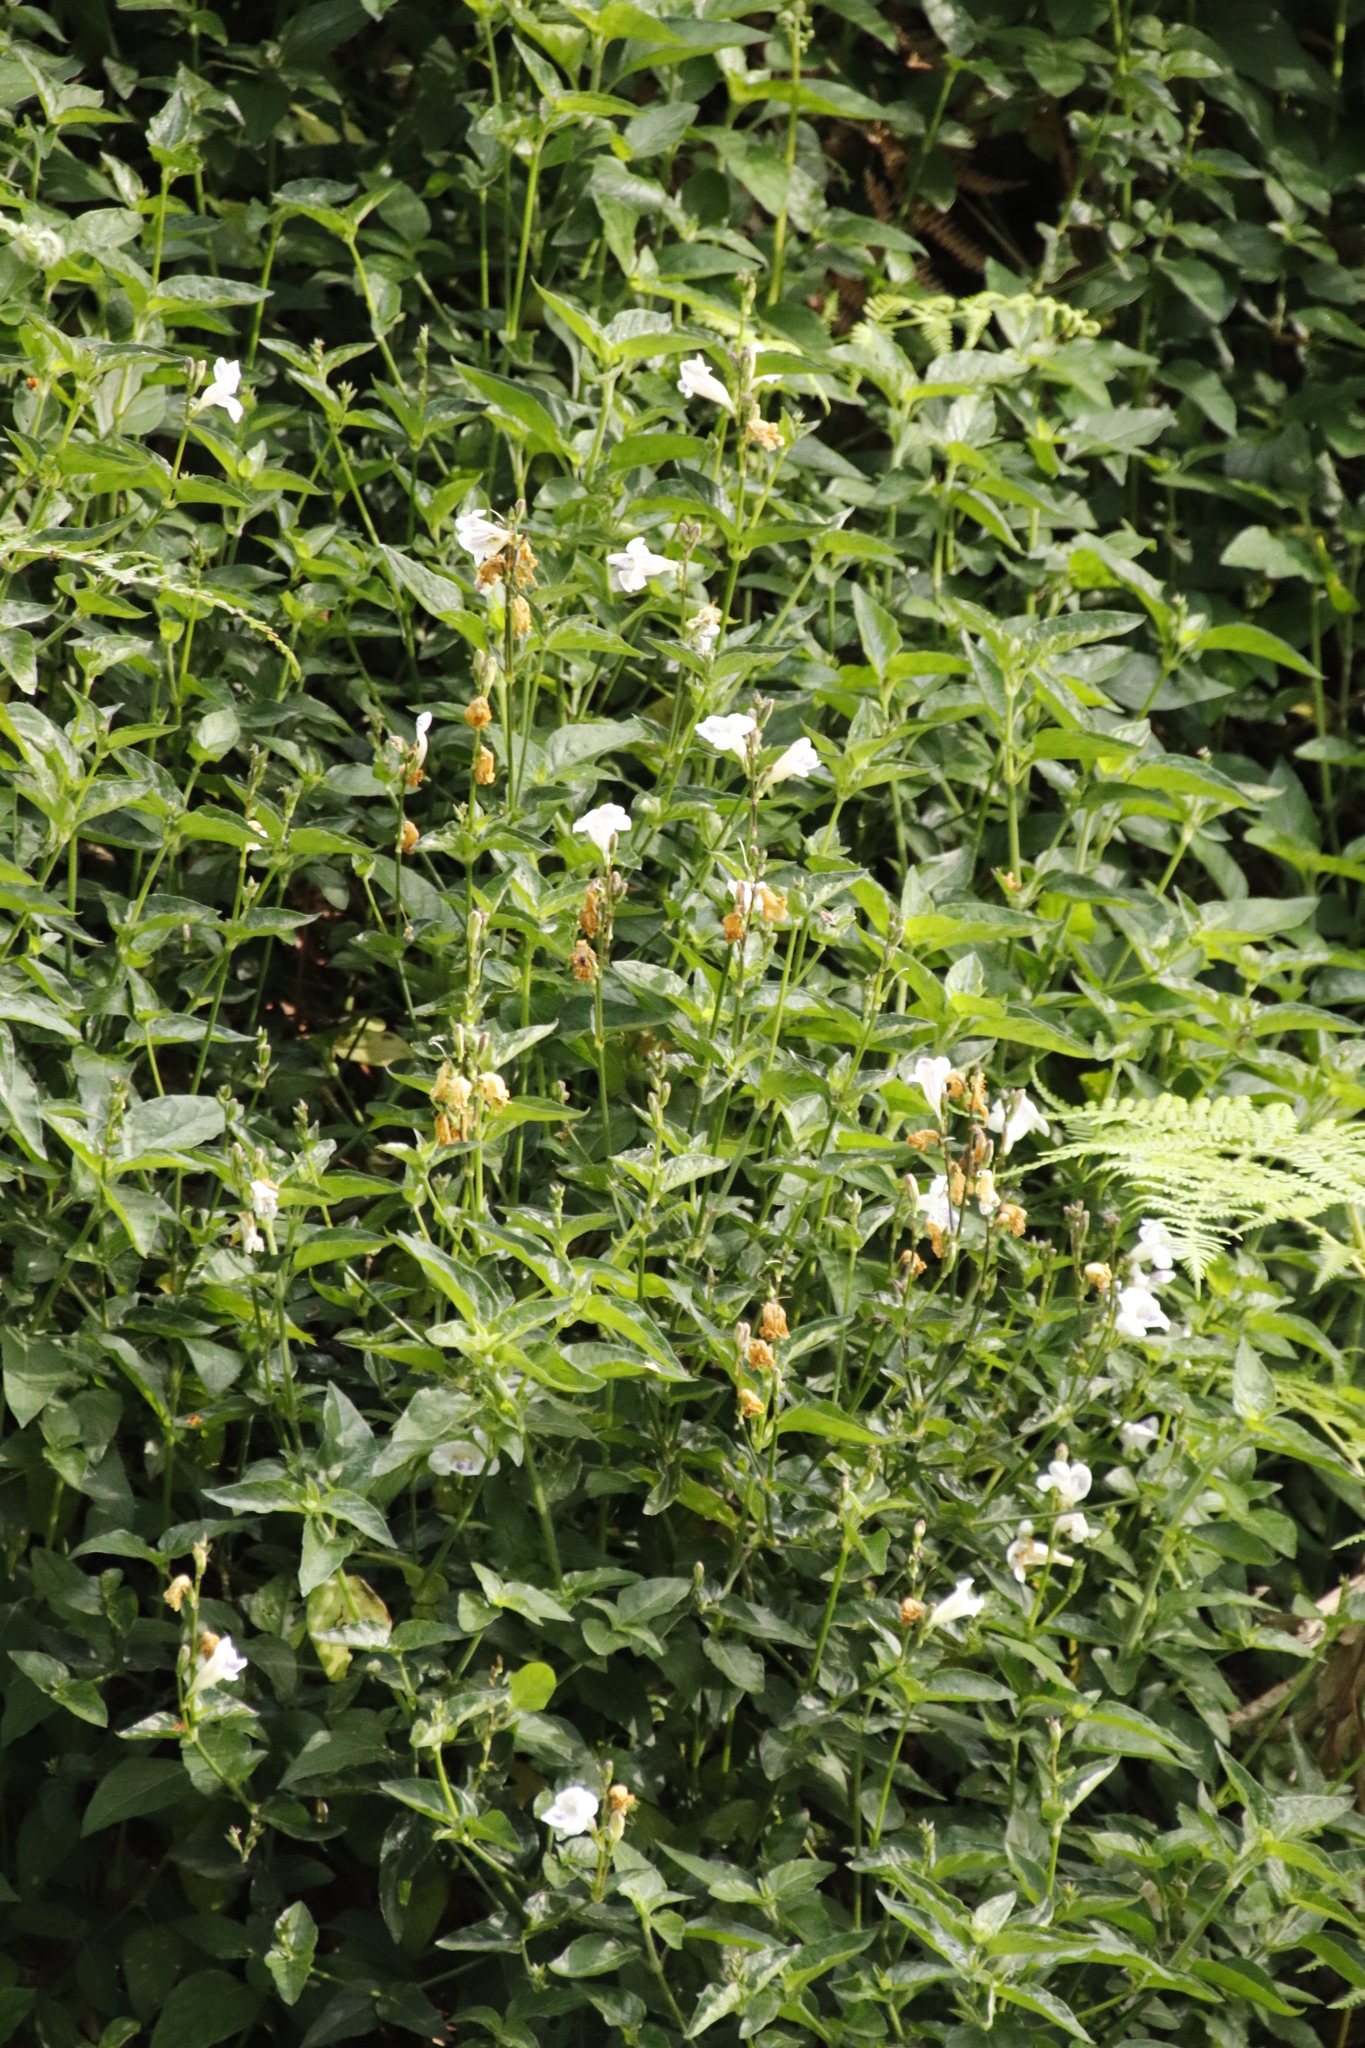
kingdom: Plantae
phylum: Tracheophyta
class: Magnoliopsida
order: Lamiales
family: Acanthaceae
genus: Asystasia
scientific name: Asystasia intrusa
